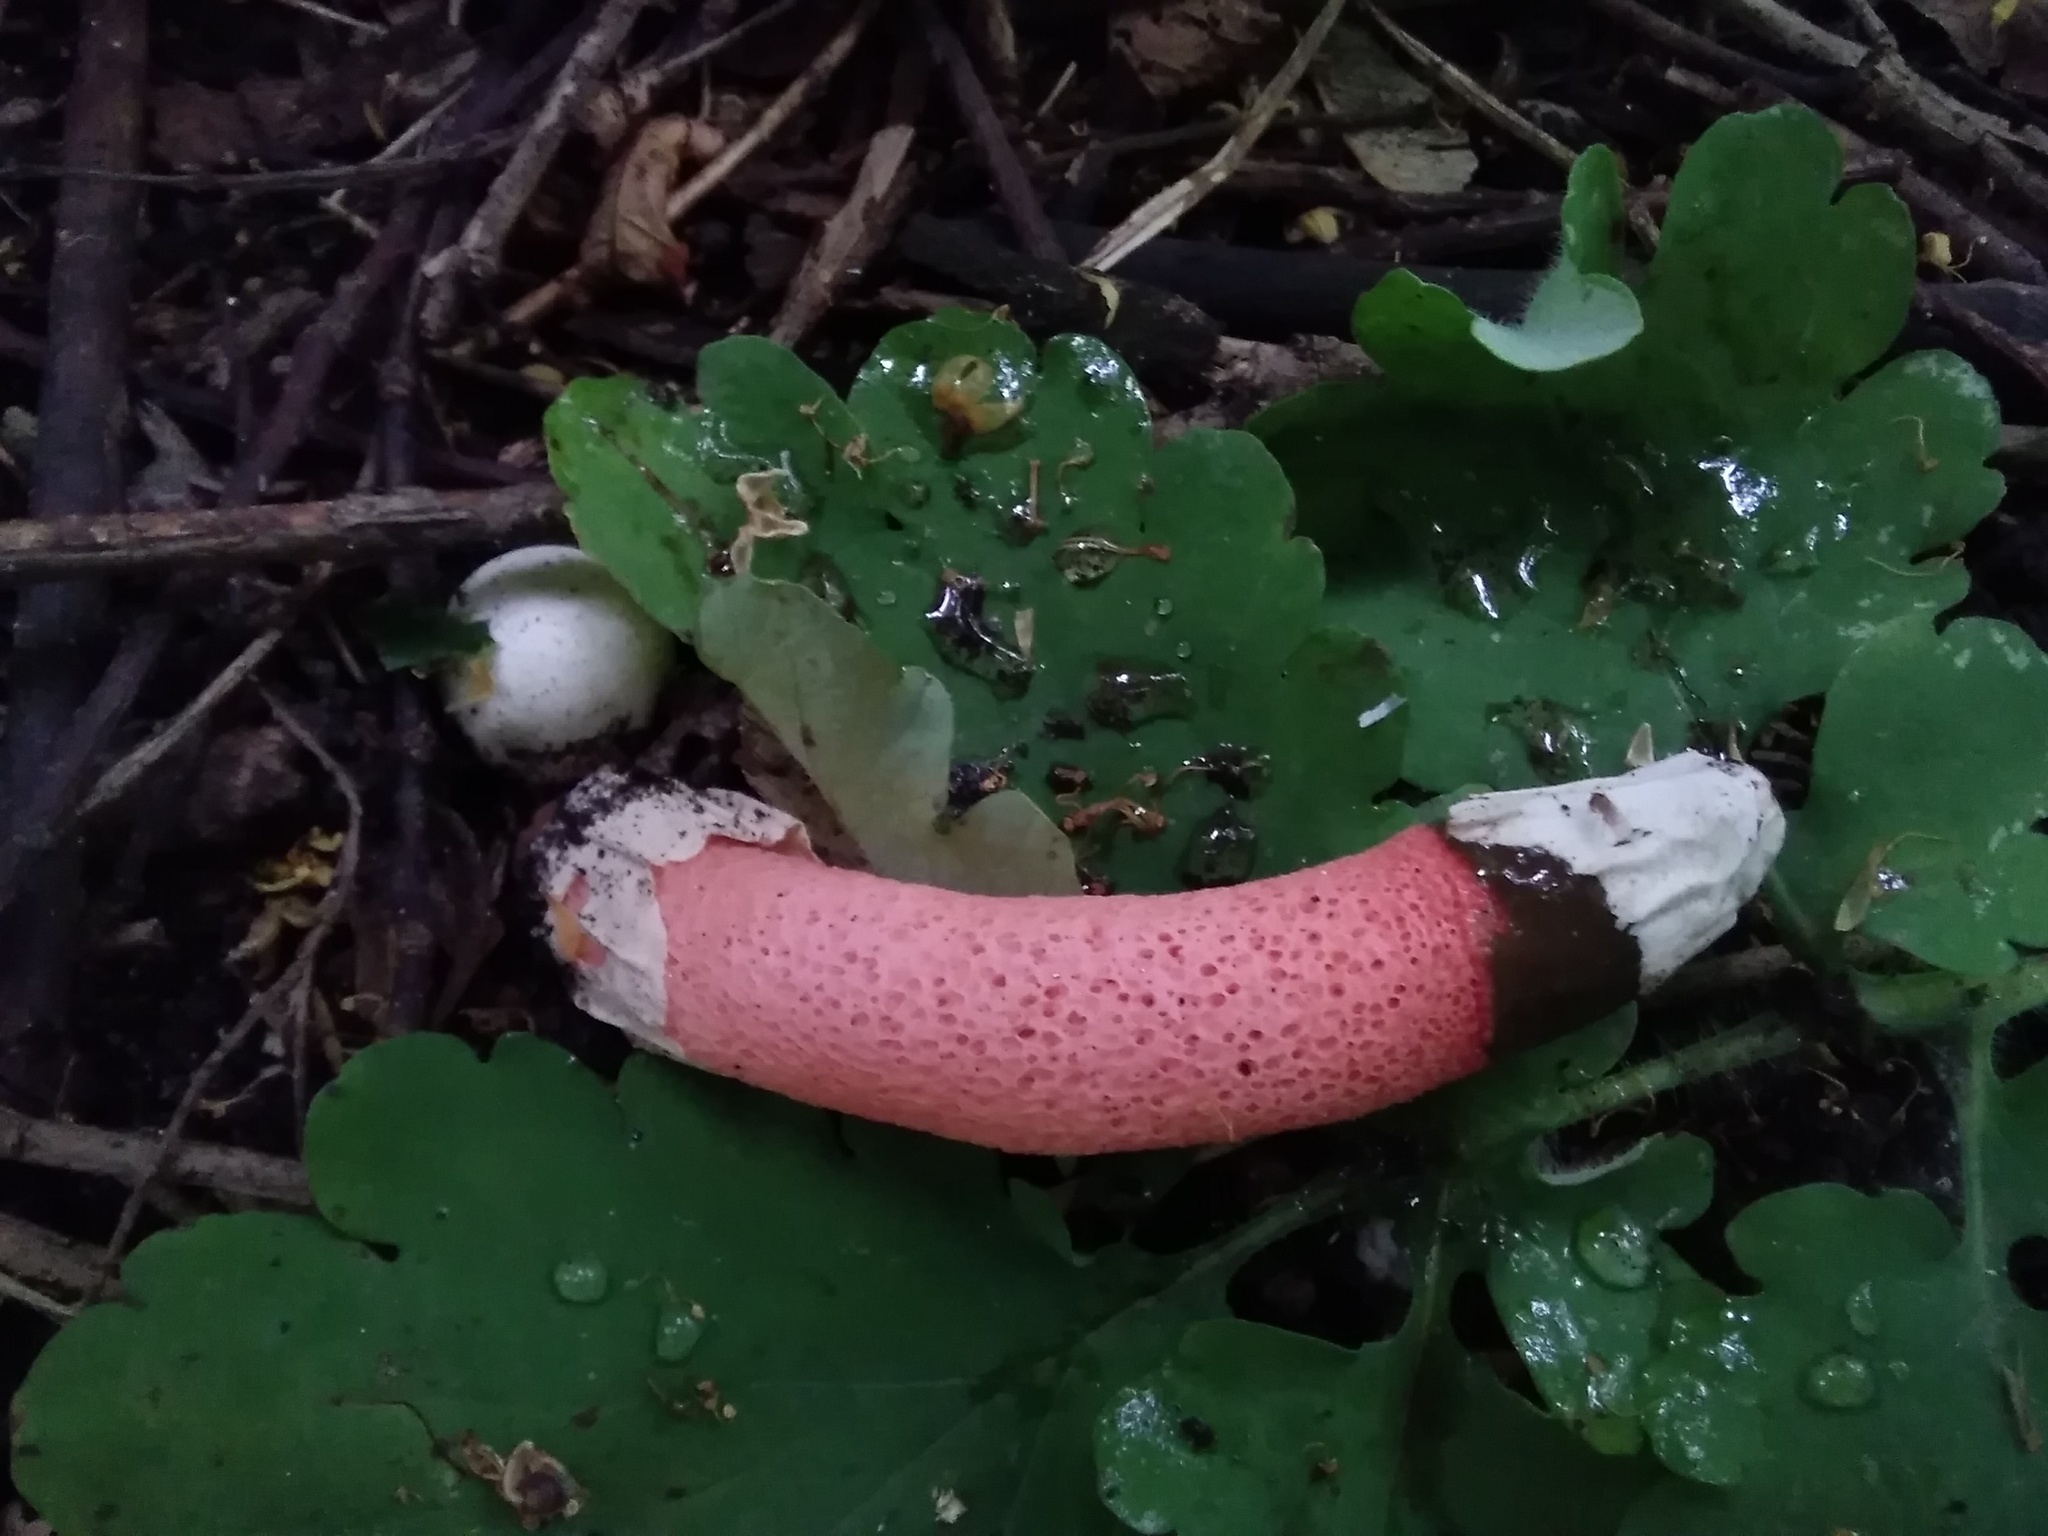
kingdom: Fungi
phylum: Basidiomycota
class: Agaricomycetes
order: Phallales
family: Phallaceae
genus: Mutinus
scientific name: Mutinus ravenelii
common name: Red stinkhorn
